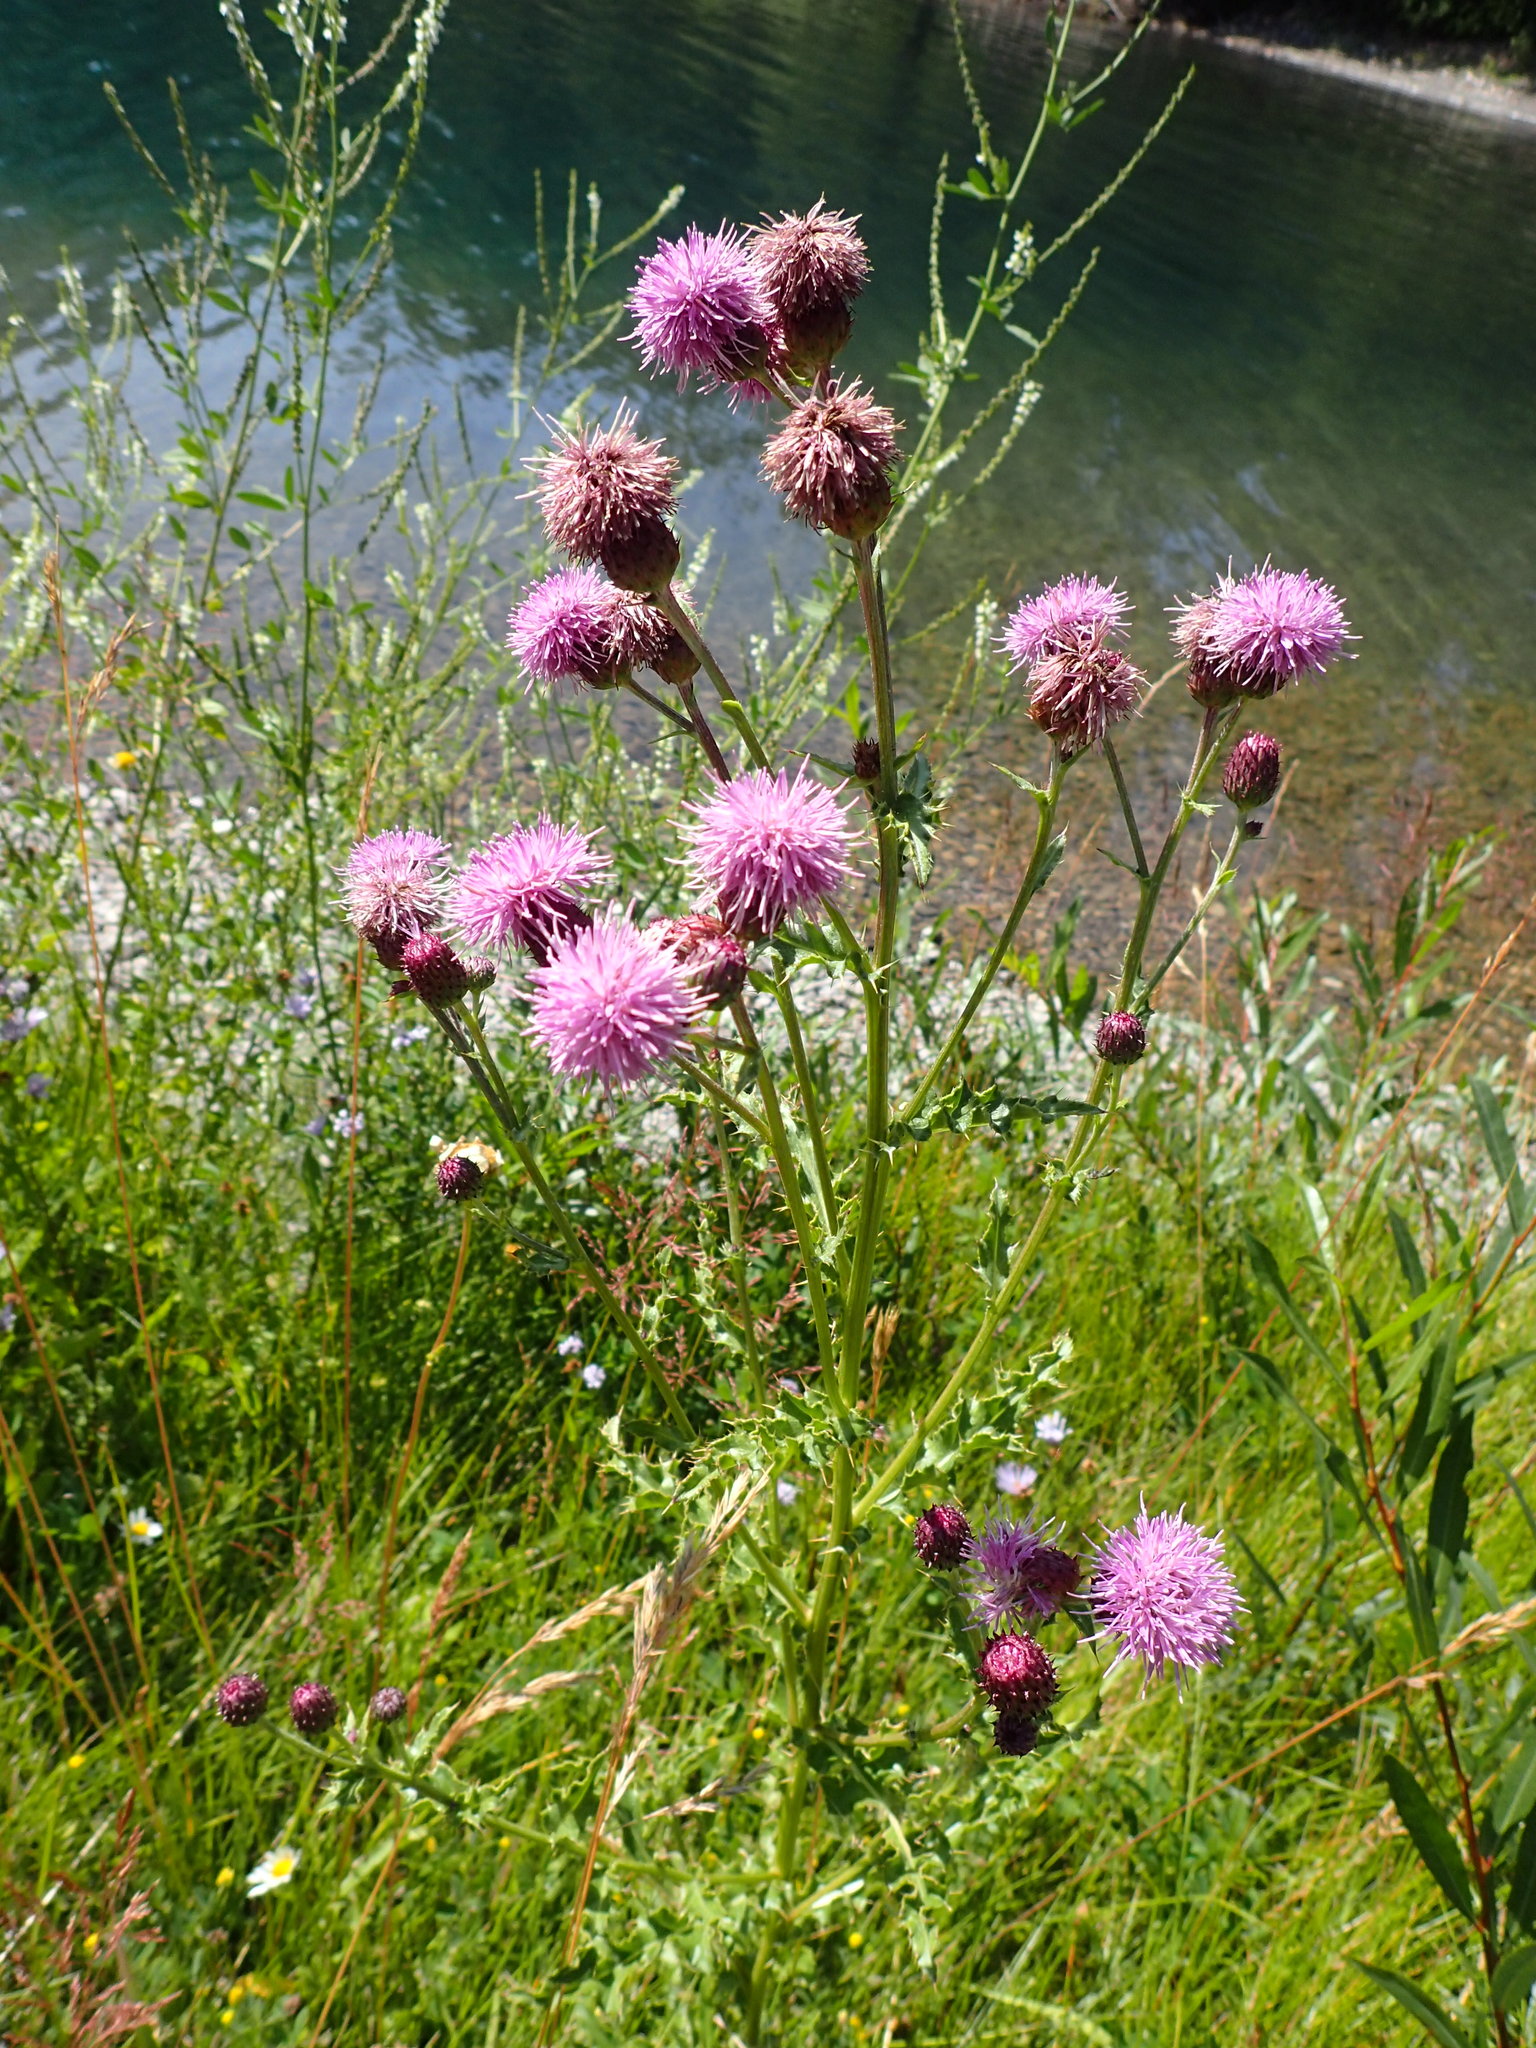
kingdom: Plantae
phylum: Tracheophyta
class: Magnoliopsida
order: Asterales
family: Asteraceae
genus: Cirsium
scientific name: Cirsium arvense
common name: Creeping thistle
